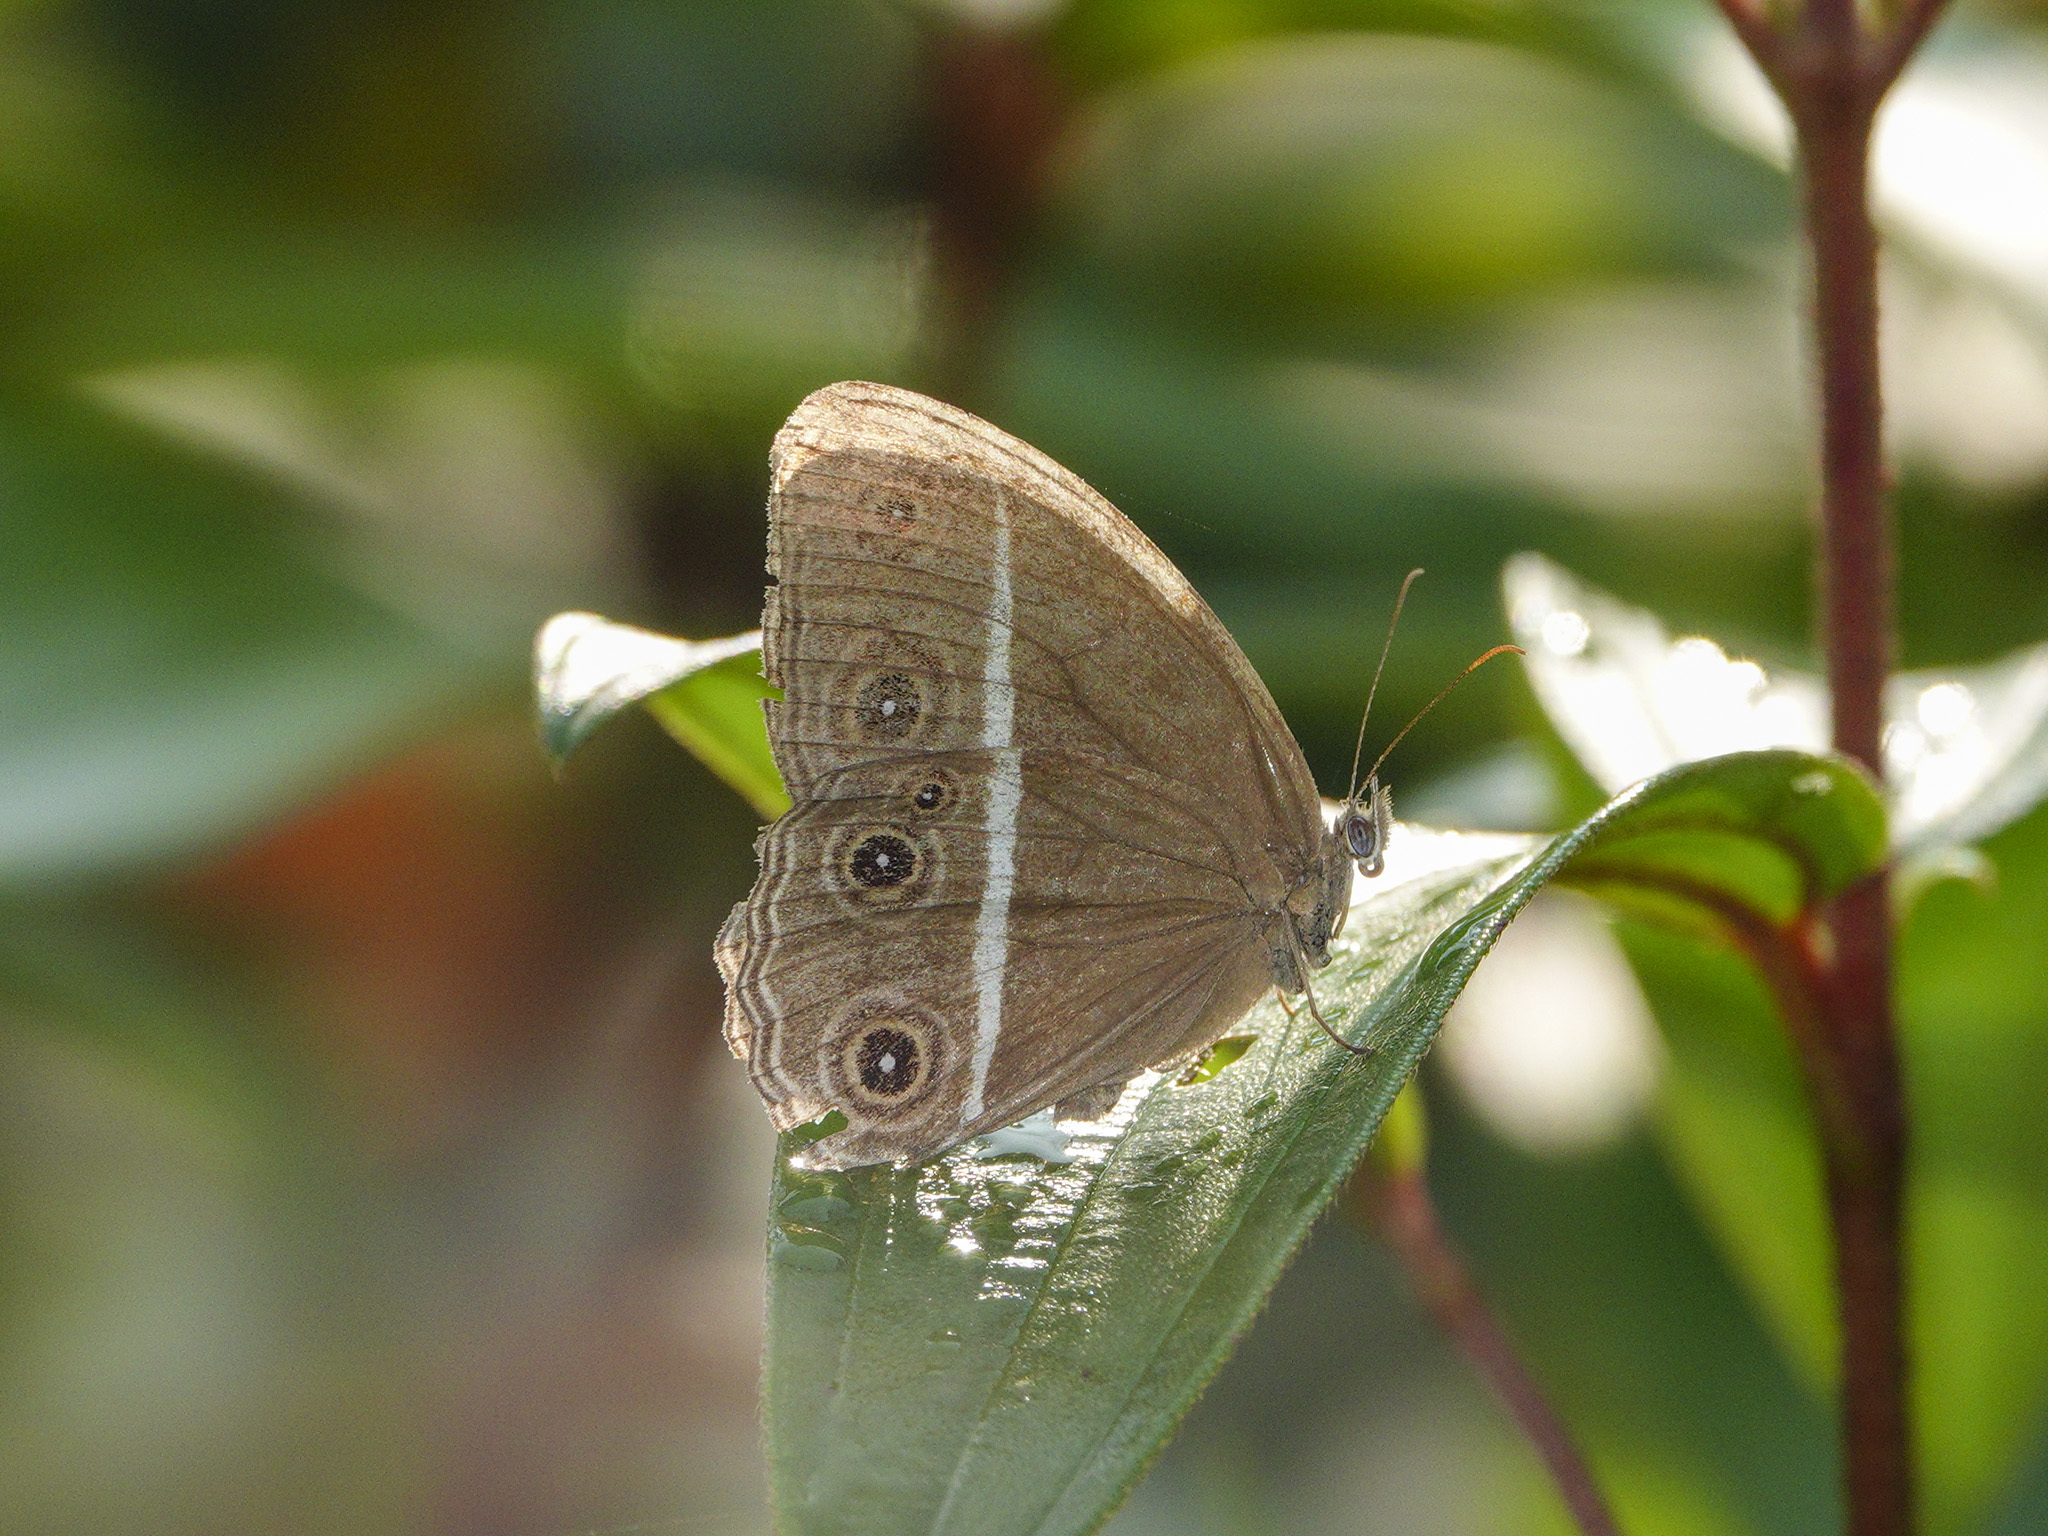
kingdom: Animalia
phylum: Arthropoda
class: Insecta
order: Lepidoptera
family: Nymphalidae
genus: Orsotriaena
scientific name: Orsotriaena medus
